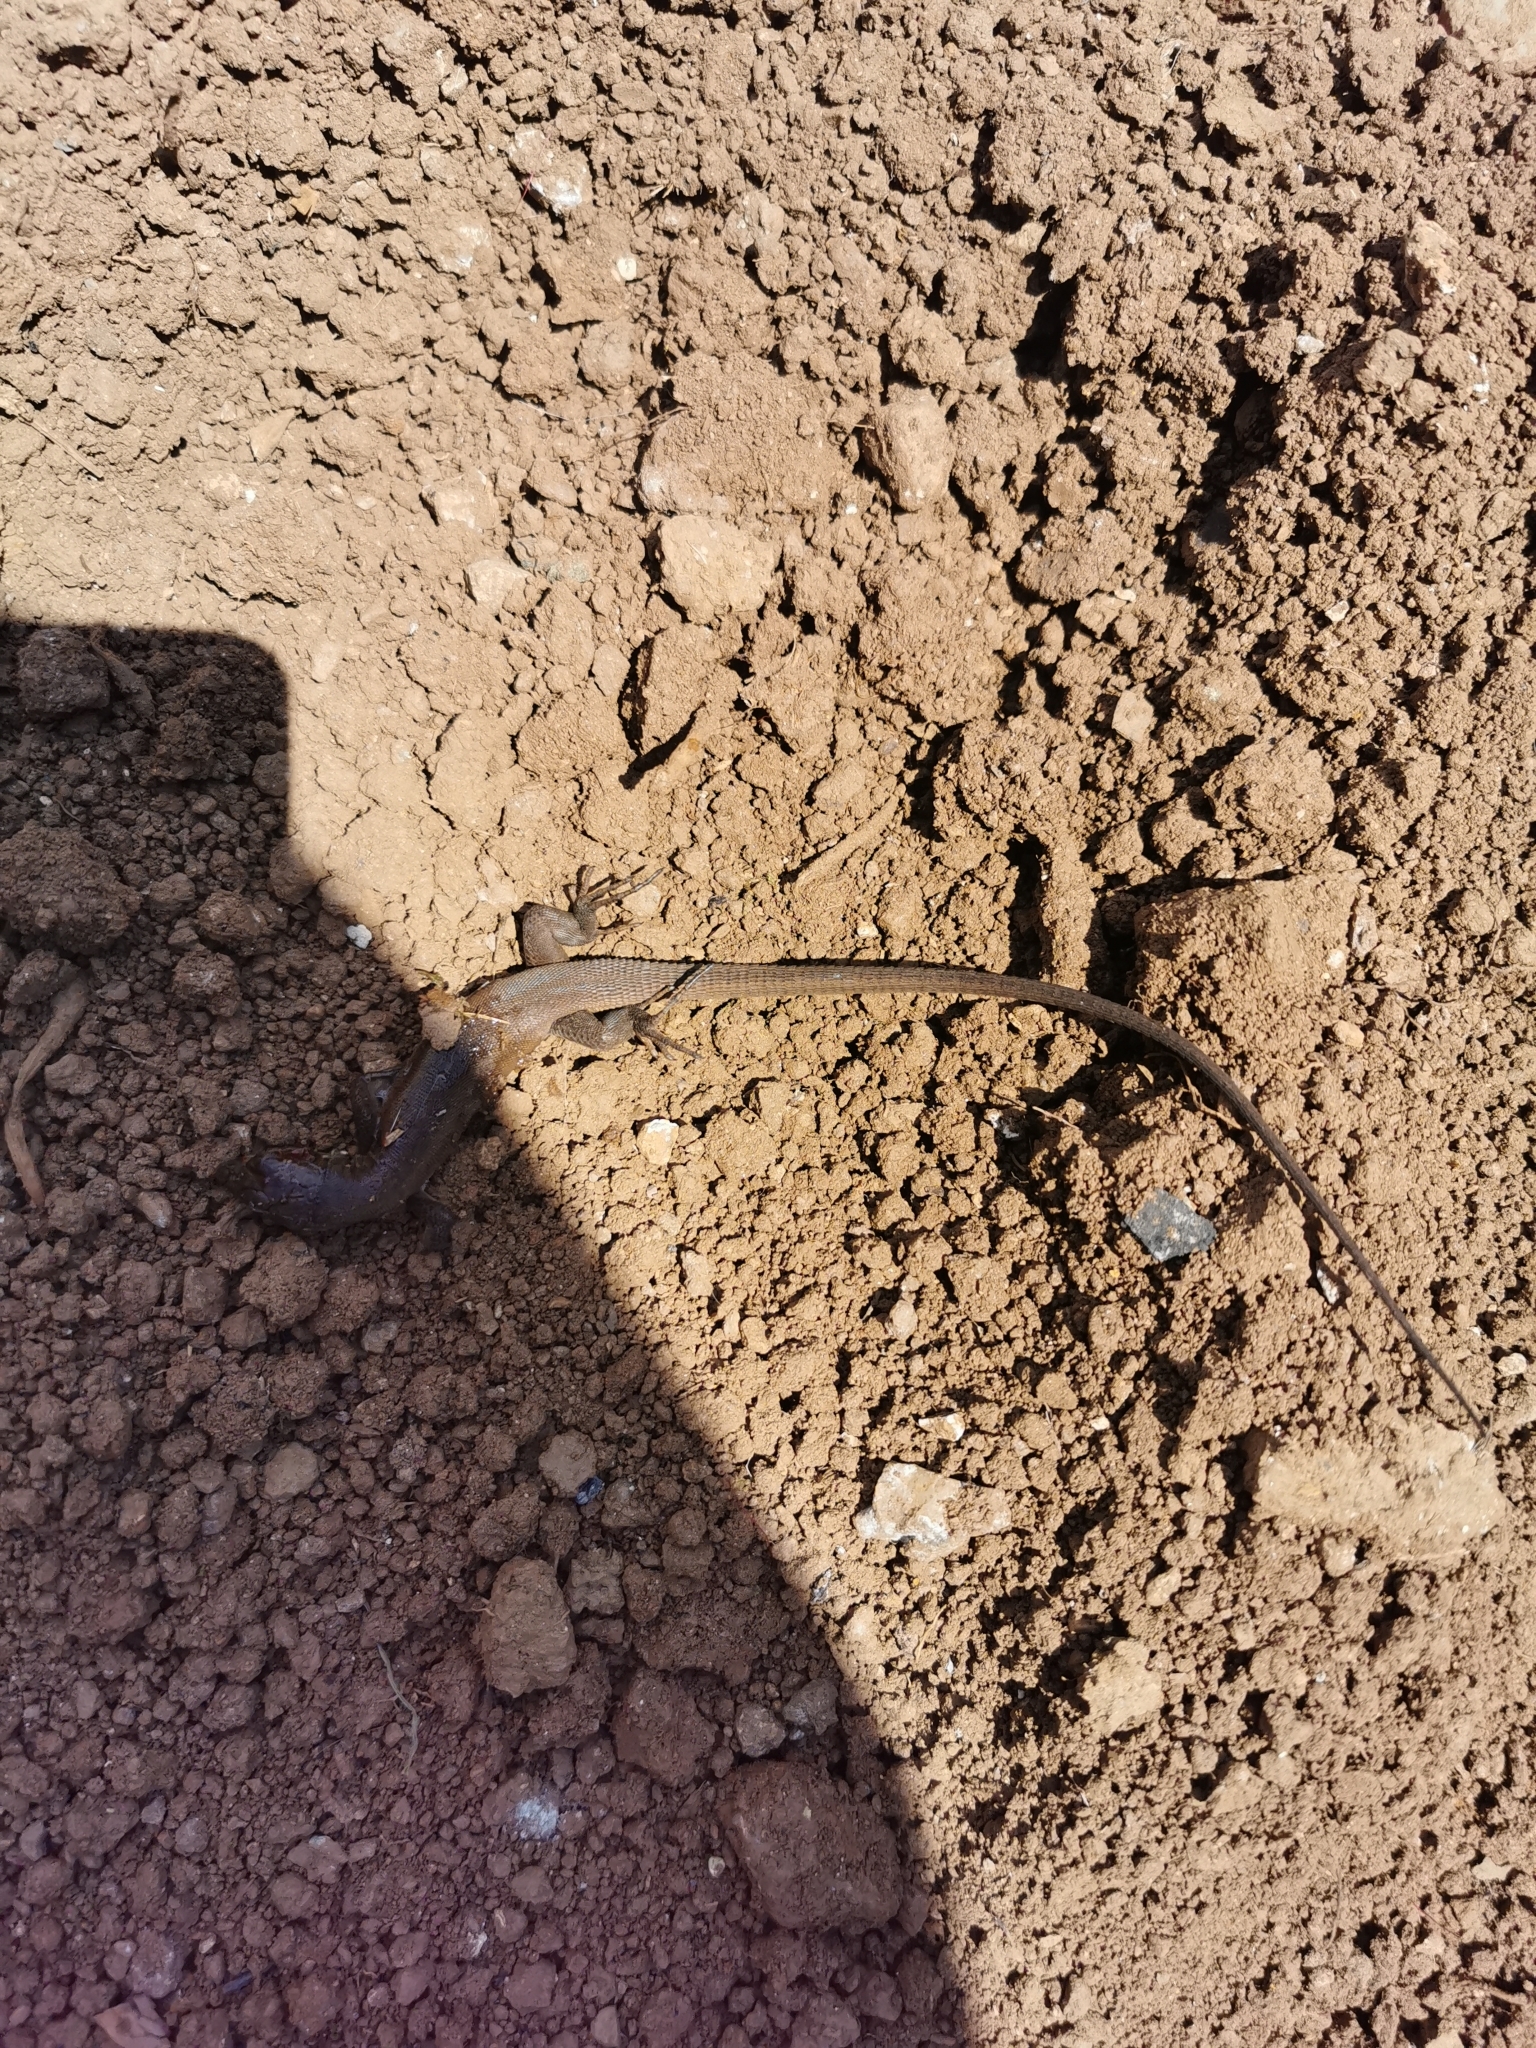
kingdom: Animalia
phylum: Chordata
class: Squamata
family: Lacertidae
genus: Lacerta
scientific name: Lacerta trilineata
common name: Balkan green lizard
